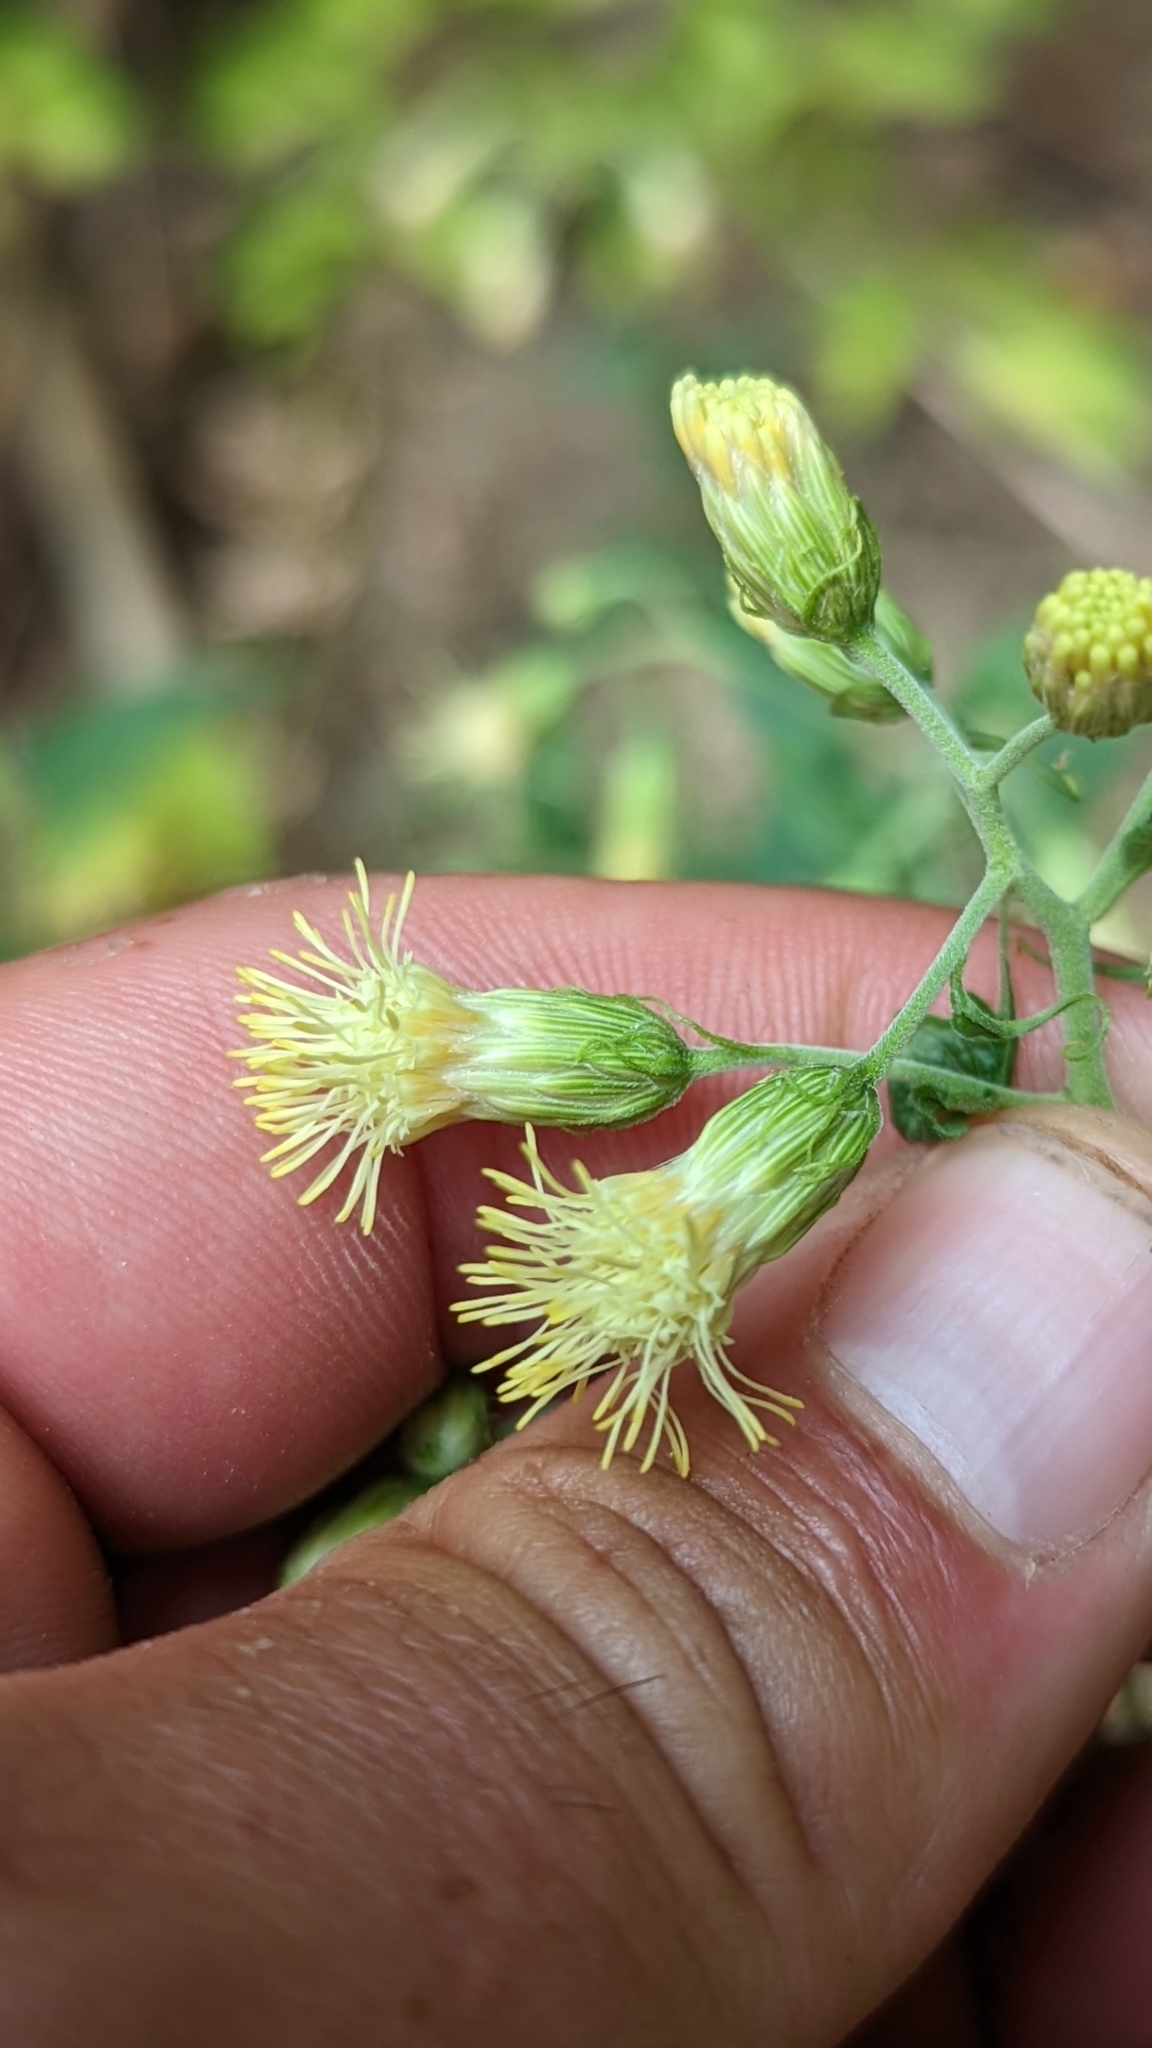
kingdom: Plantae
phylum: Tracheophyta
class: Magnoliopsida
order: Asterales
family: Asteraceae
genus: Brickellia
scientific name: Brickellia grandiflora
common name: Large-flowered brickellia
